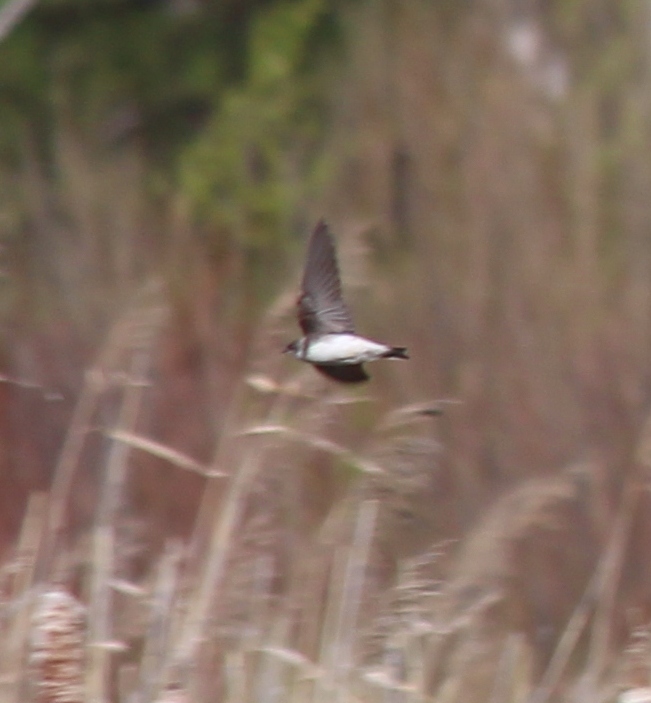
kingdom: Animalia
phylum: Chordata
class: Aves
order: Passeriformes
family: Hirundinidae
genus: Riparia
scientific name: Riparia riparia
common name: Sand martin
